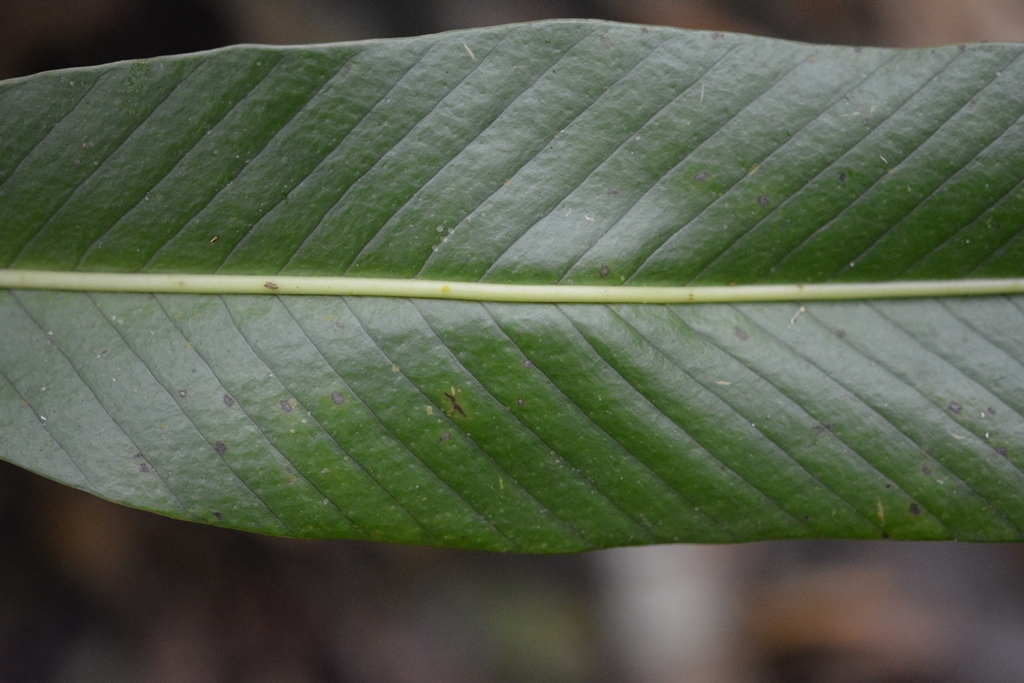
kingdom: Plantae
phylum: Tracheophyta
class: Polypodiopsida
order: Polypodiales
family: Polypodiaceae
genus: Niphidium
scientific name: Niphidium crassifolium
